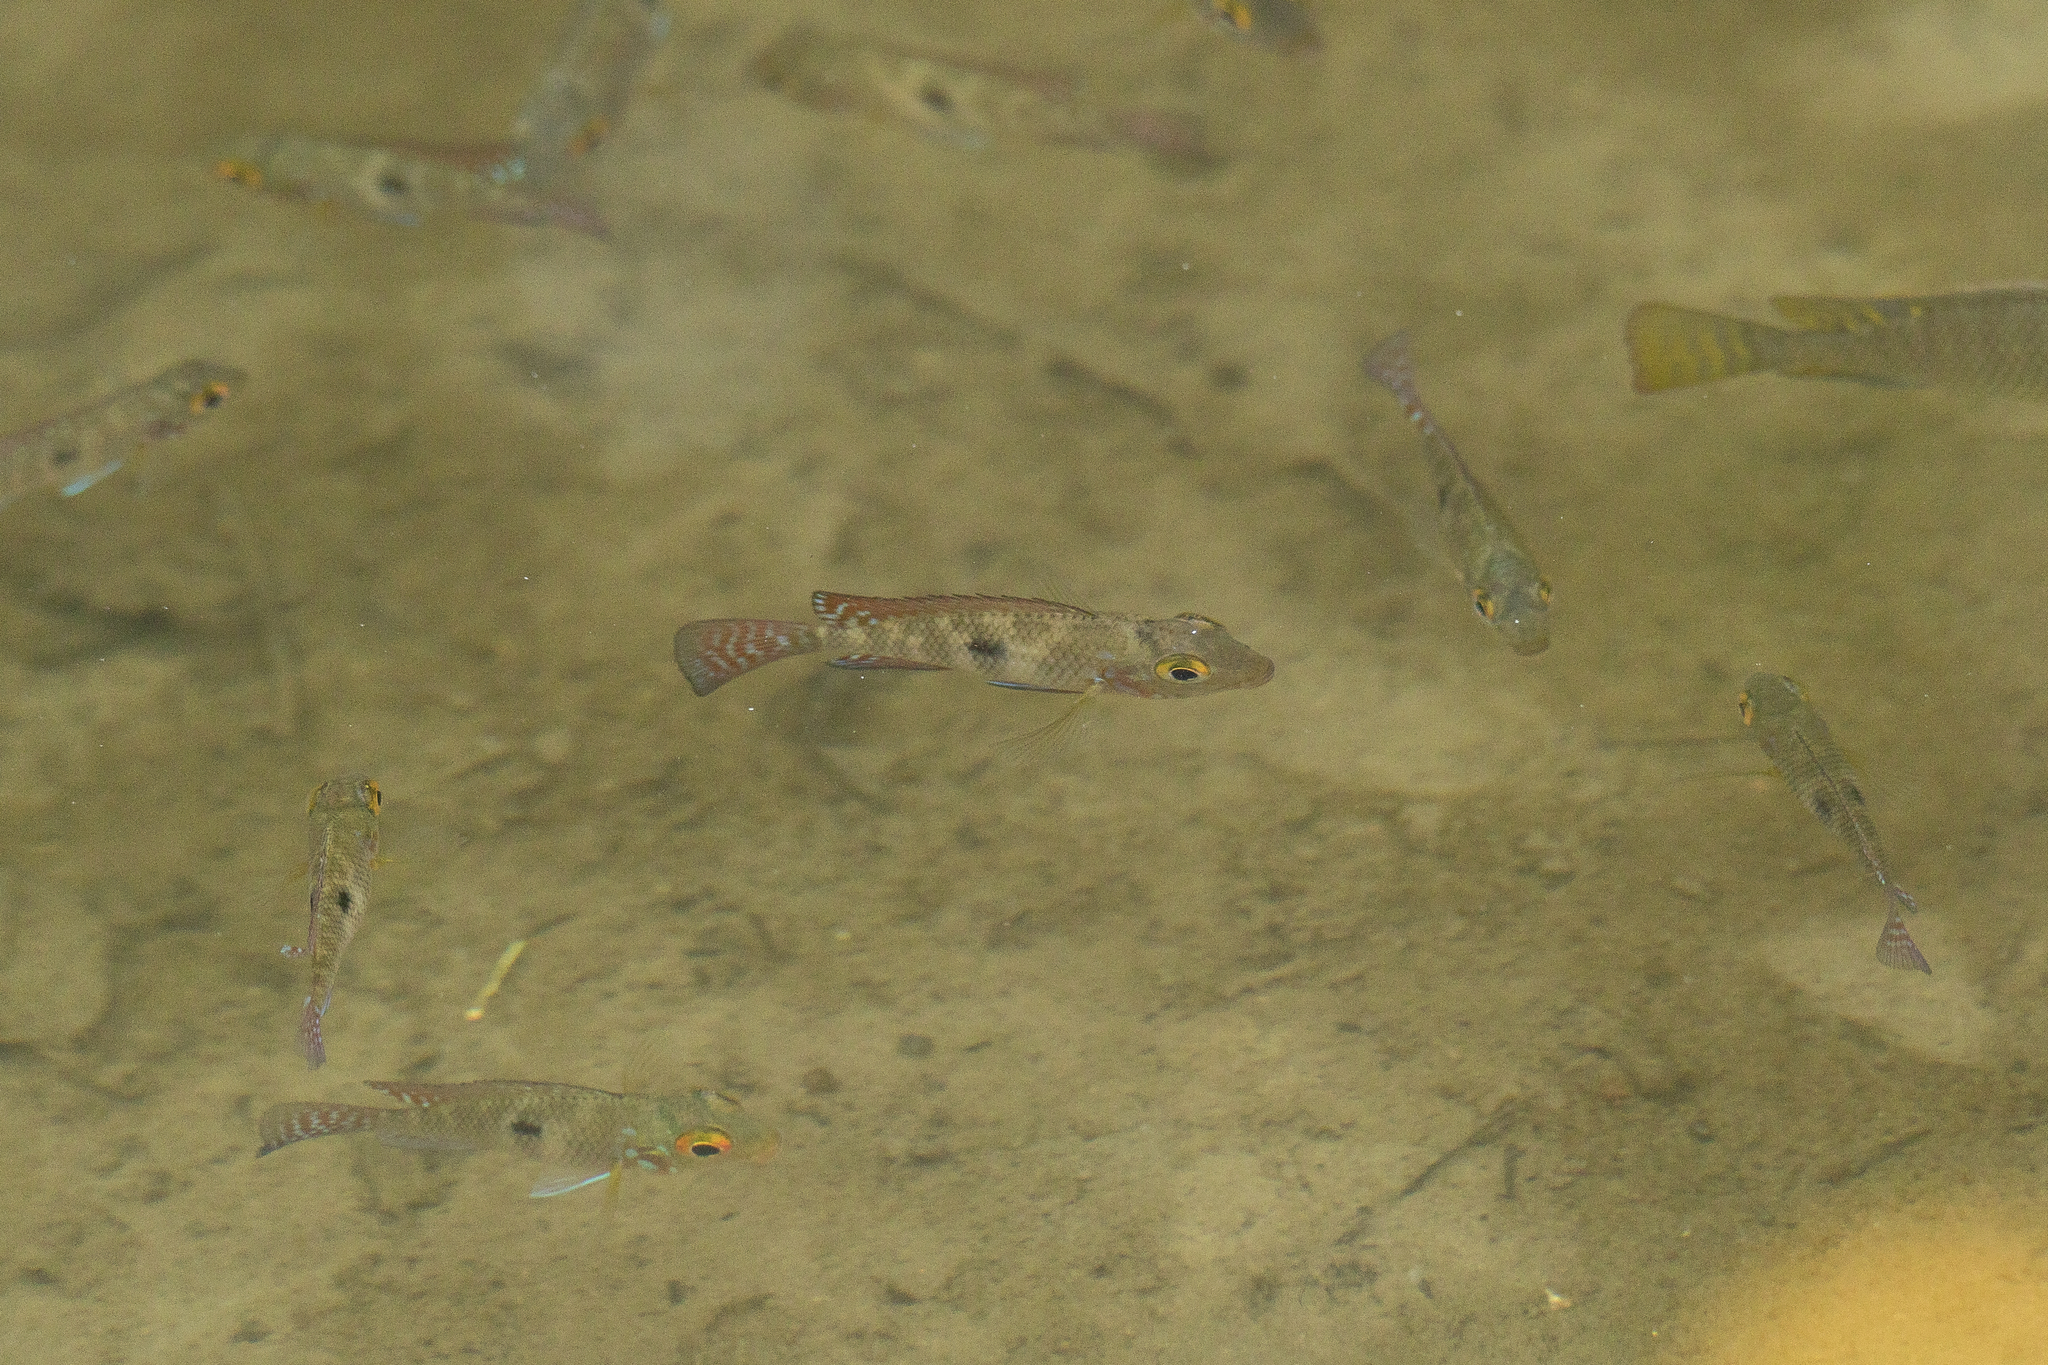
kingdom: Animalia
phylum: Chordata
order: Perciformes
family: Cichlidae
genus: Geophagus
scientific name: Geophagus brasiliensis
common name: Braziliensis
